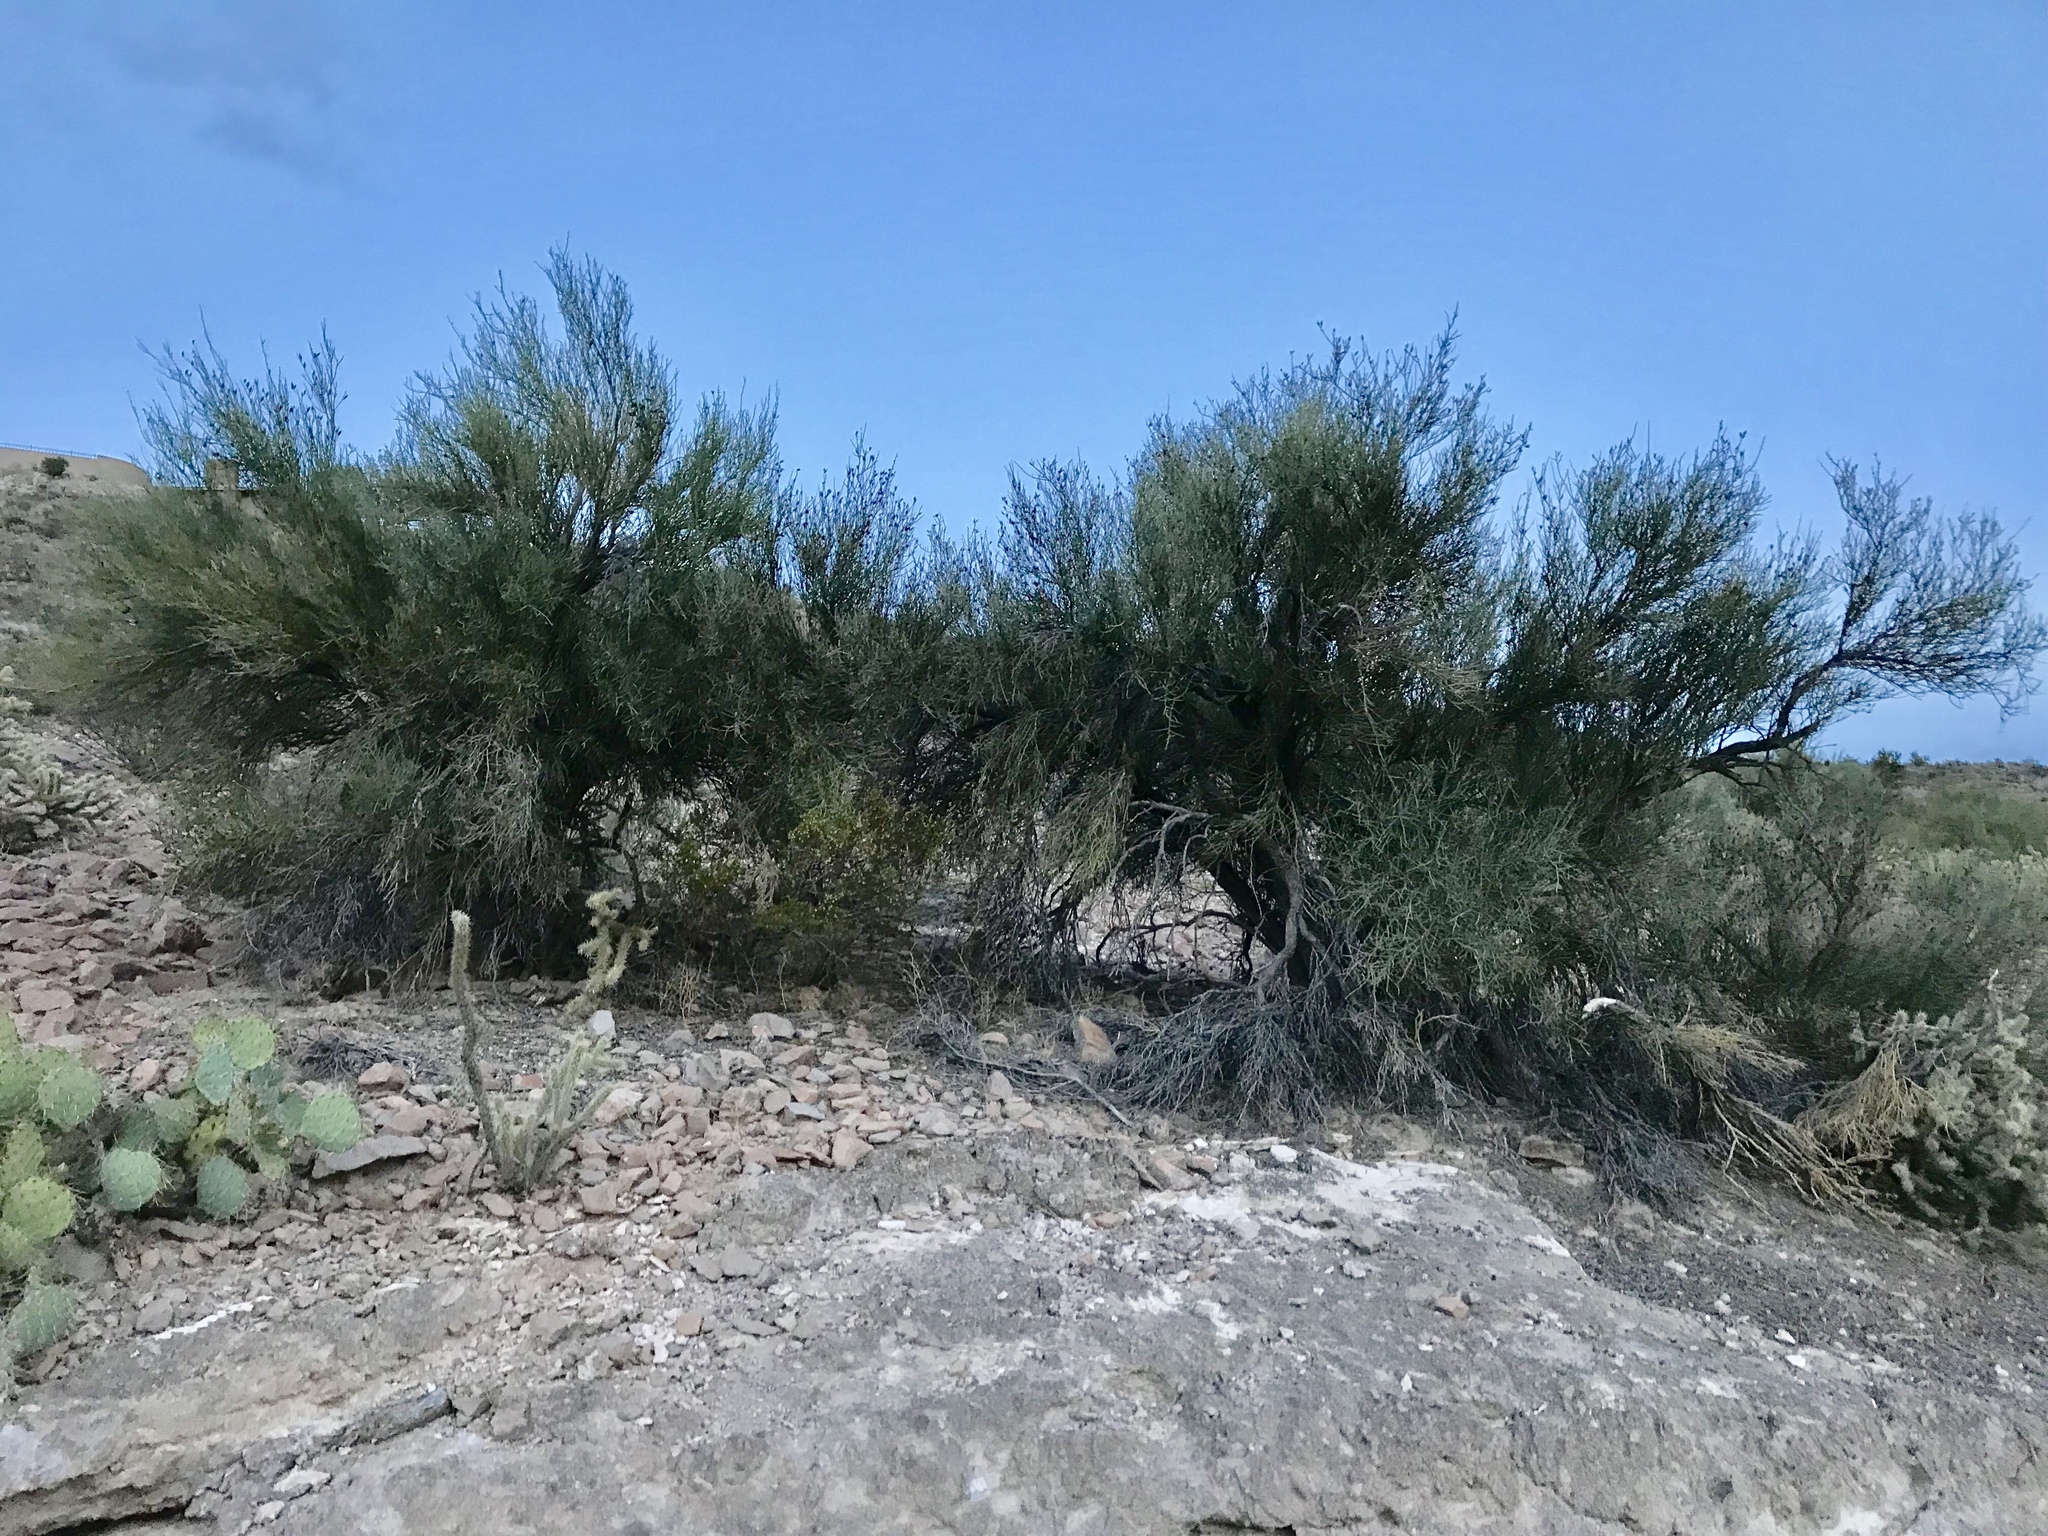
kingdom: Plantae
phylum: Tracheophyta
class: Magnoliopsida
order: Celastrales
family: Celastraceae
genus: Canotia
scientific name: Canotia holacantha
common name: Crucifixion thorns
